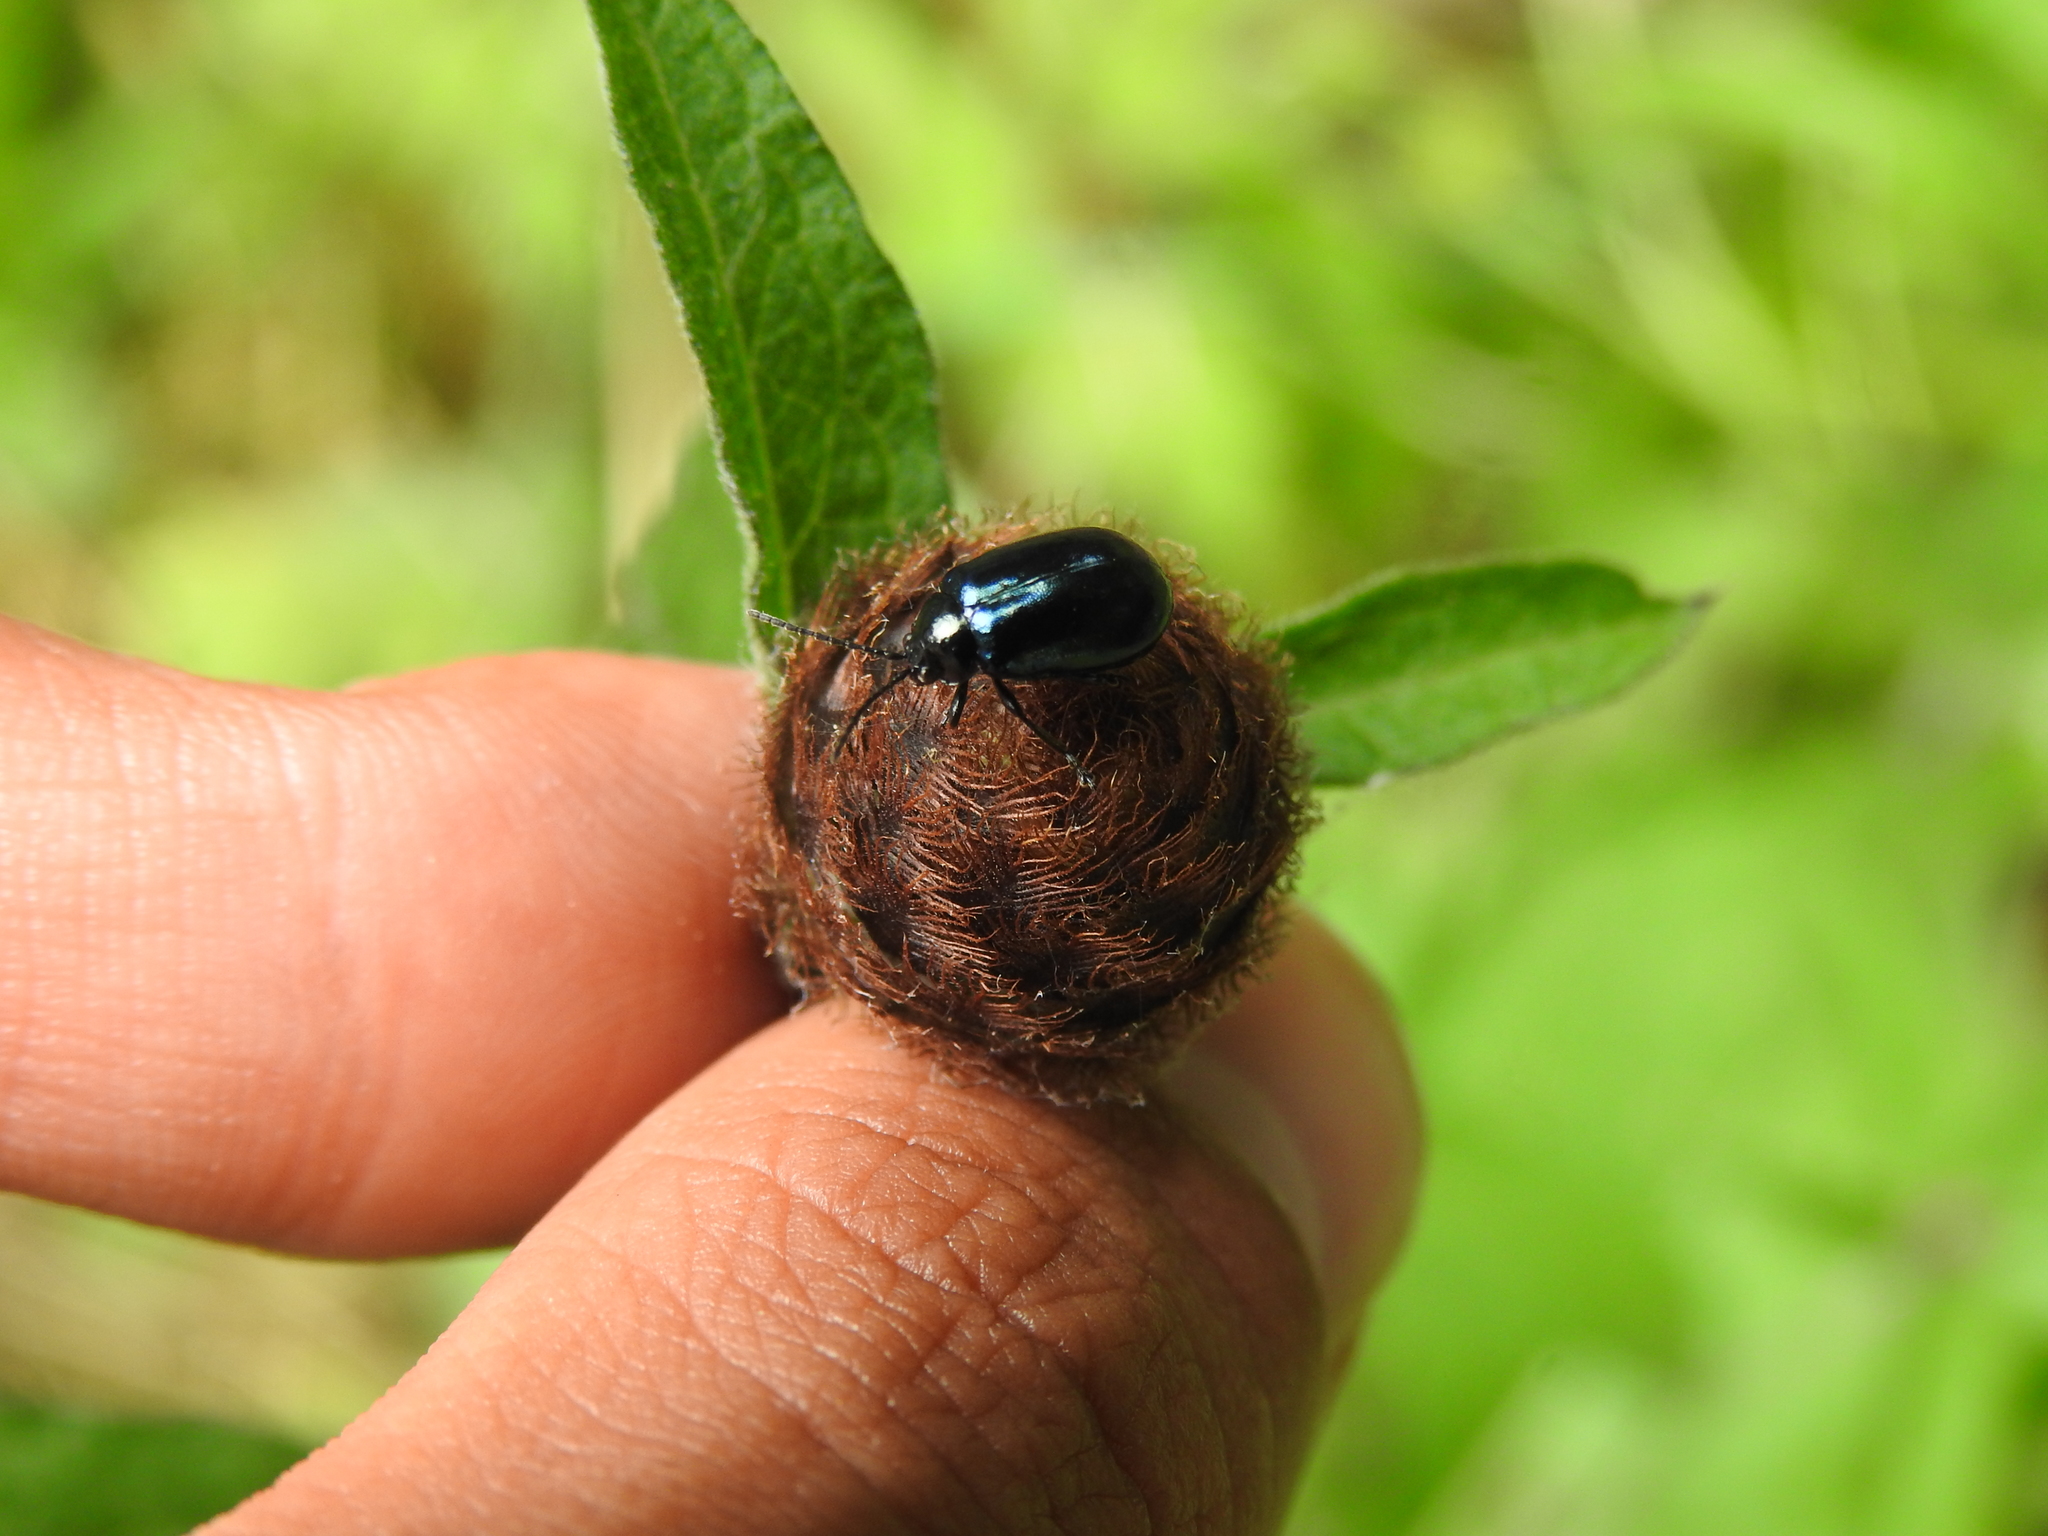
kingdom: Animalia
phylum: Arthropoda
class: Insecta
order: Coleoptera
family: Chrysomelidae
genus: Agelastica
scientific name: Agelastica alni
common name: Alder leaf beetle
